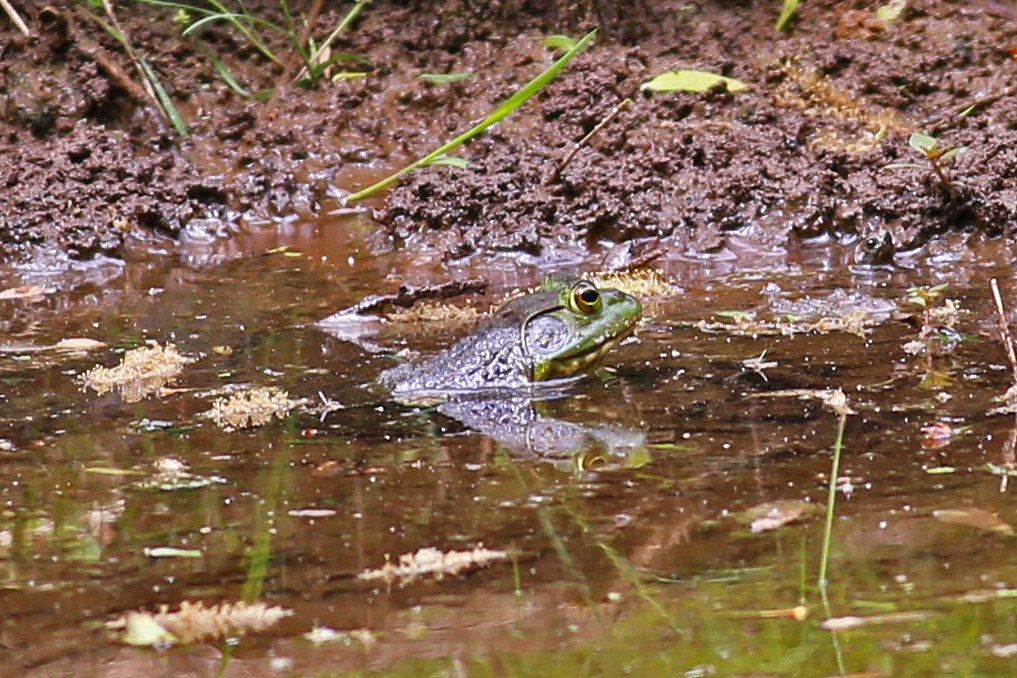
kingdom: Animalia
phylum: Chordata
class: Amphibia
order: Anura
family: Ranidae
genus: Lithobates
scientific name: Lithobates catesbeianus
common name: American bullfrog
